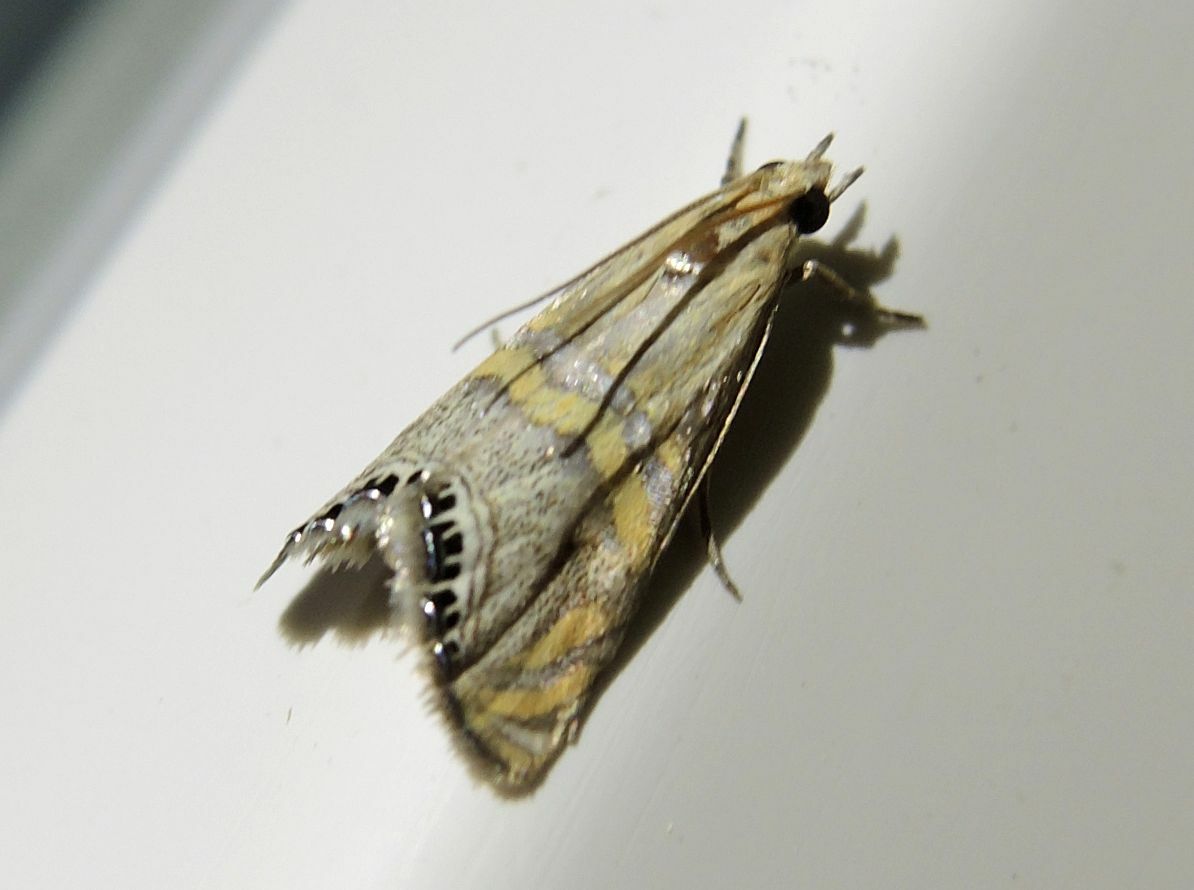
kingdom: Animalia
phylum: Arthropoda
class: Insecta
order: Lepidoptera
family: Crambidae
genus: Euchromius
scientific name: Euchromius bella
